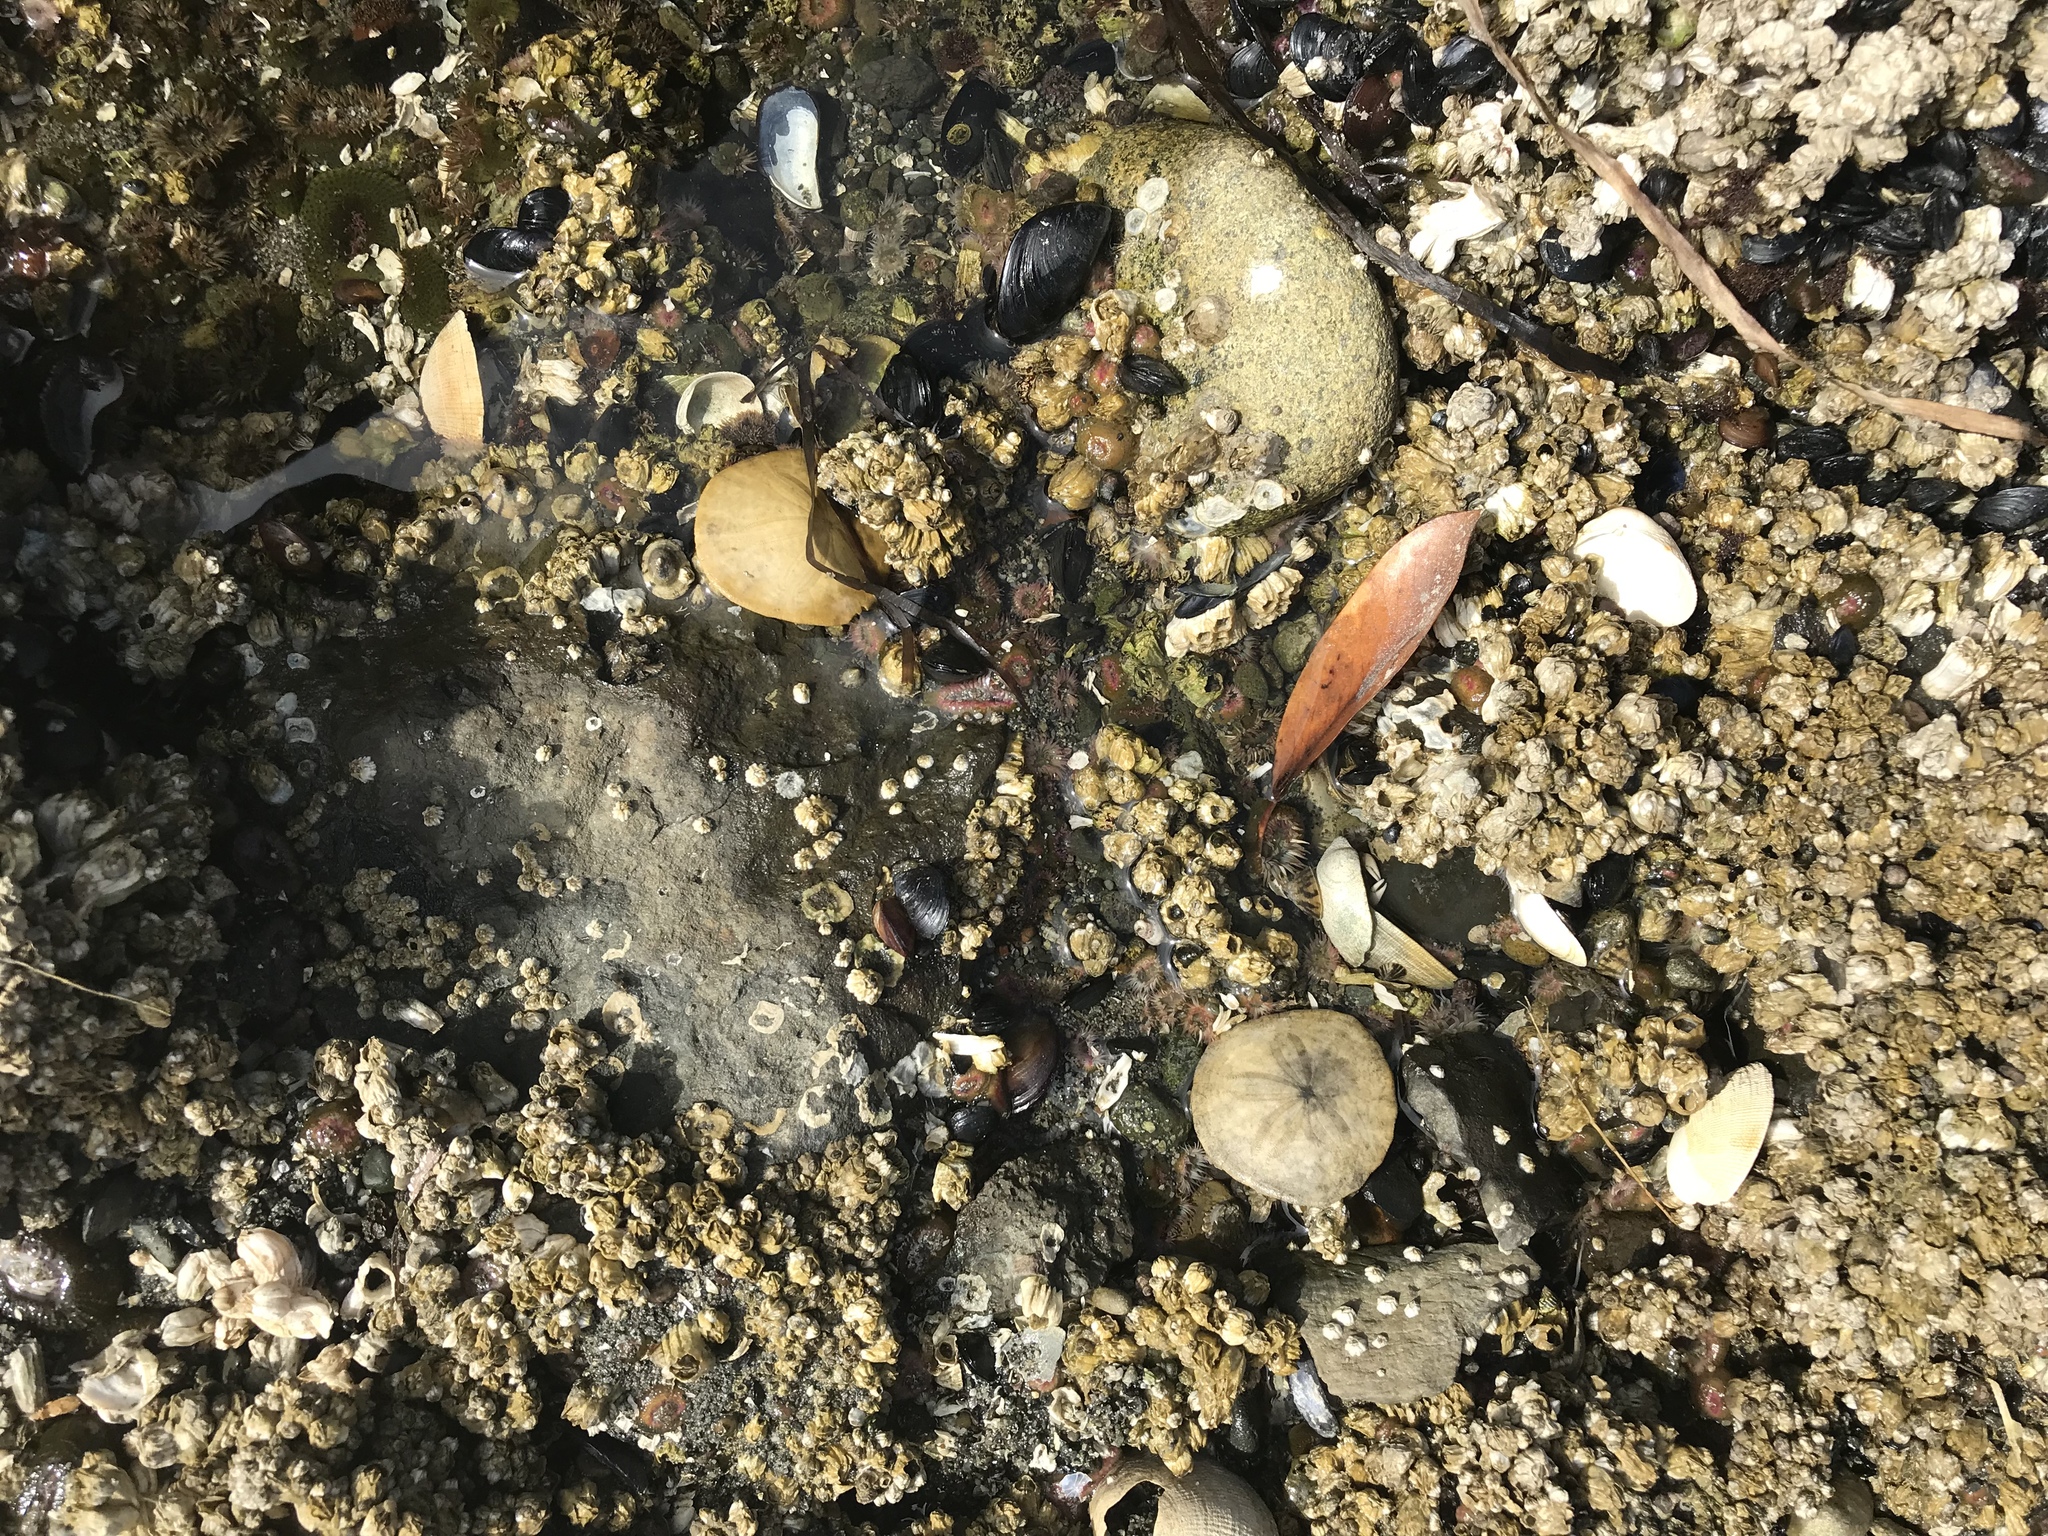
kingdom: Animalia
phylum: Echinodermata
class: Echinoidea
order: Echinolampadacea
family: Dendrasteridae
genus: Dendraster
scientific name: Dendraster excentricus
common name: Eccentric sand dollar sea urchin
